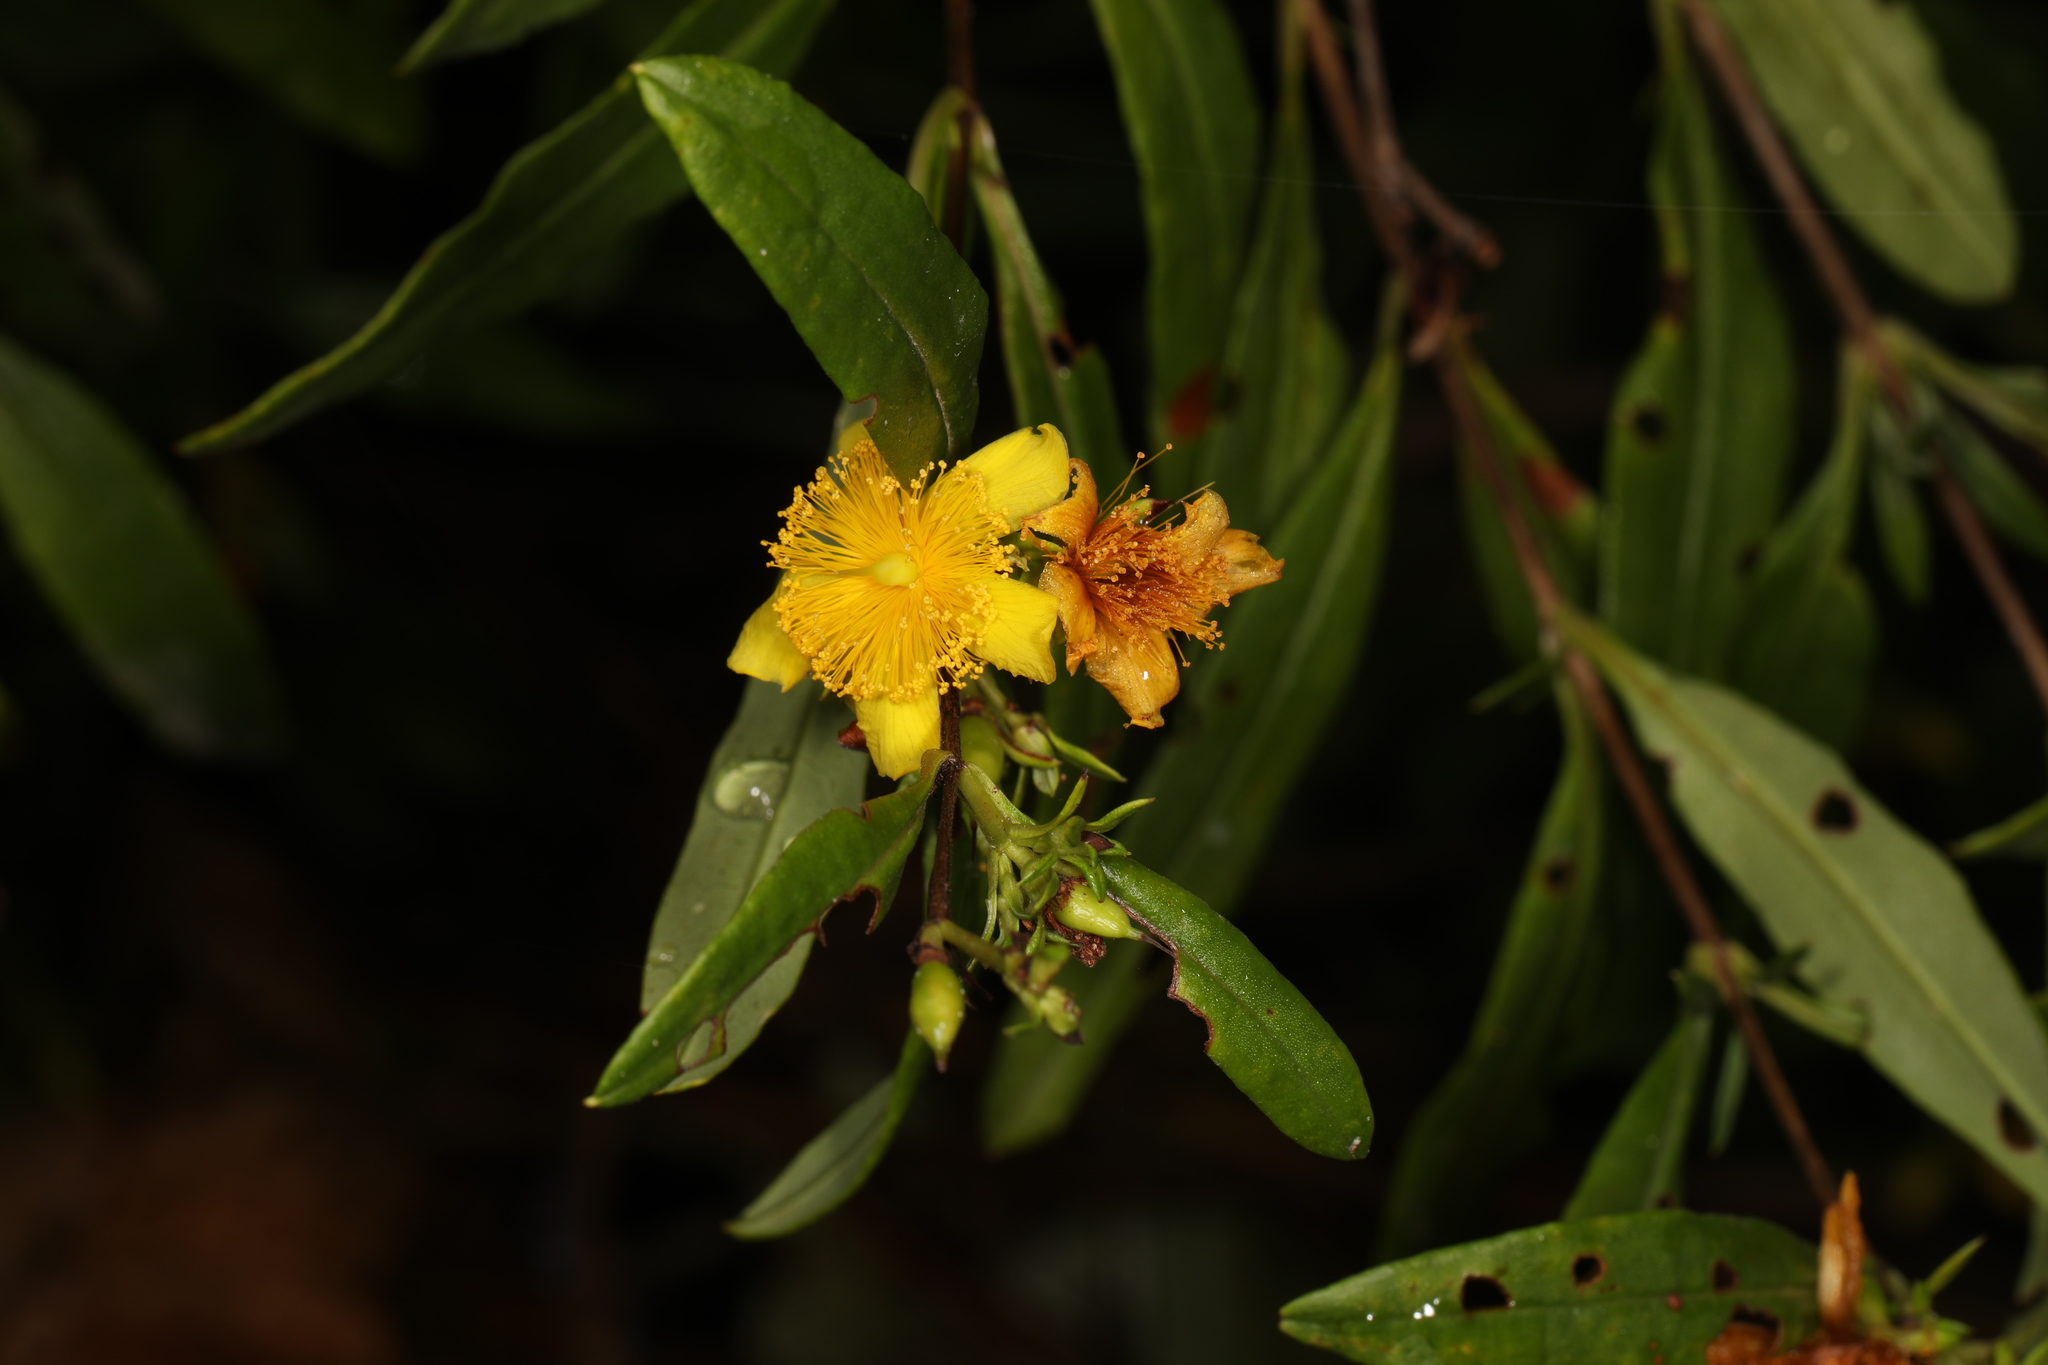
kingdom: Plantae
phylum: Tracheophyta
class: Magnoliopsida
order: Malpighiales
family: Hypericaceae
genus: Hypericum
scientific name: Hypericum prolificum
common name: Shrubby st. john's-wort
